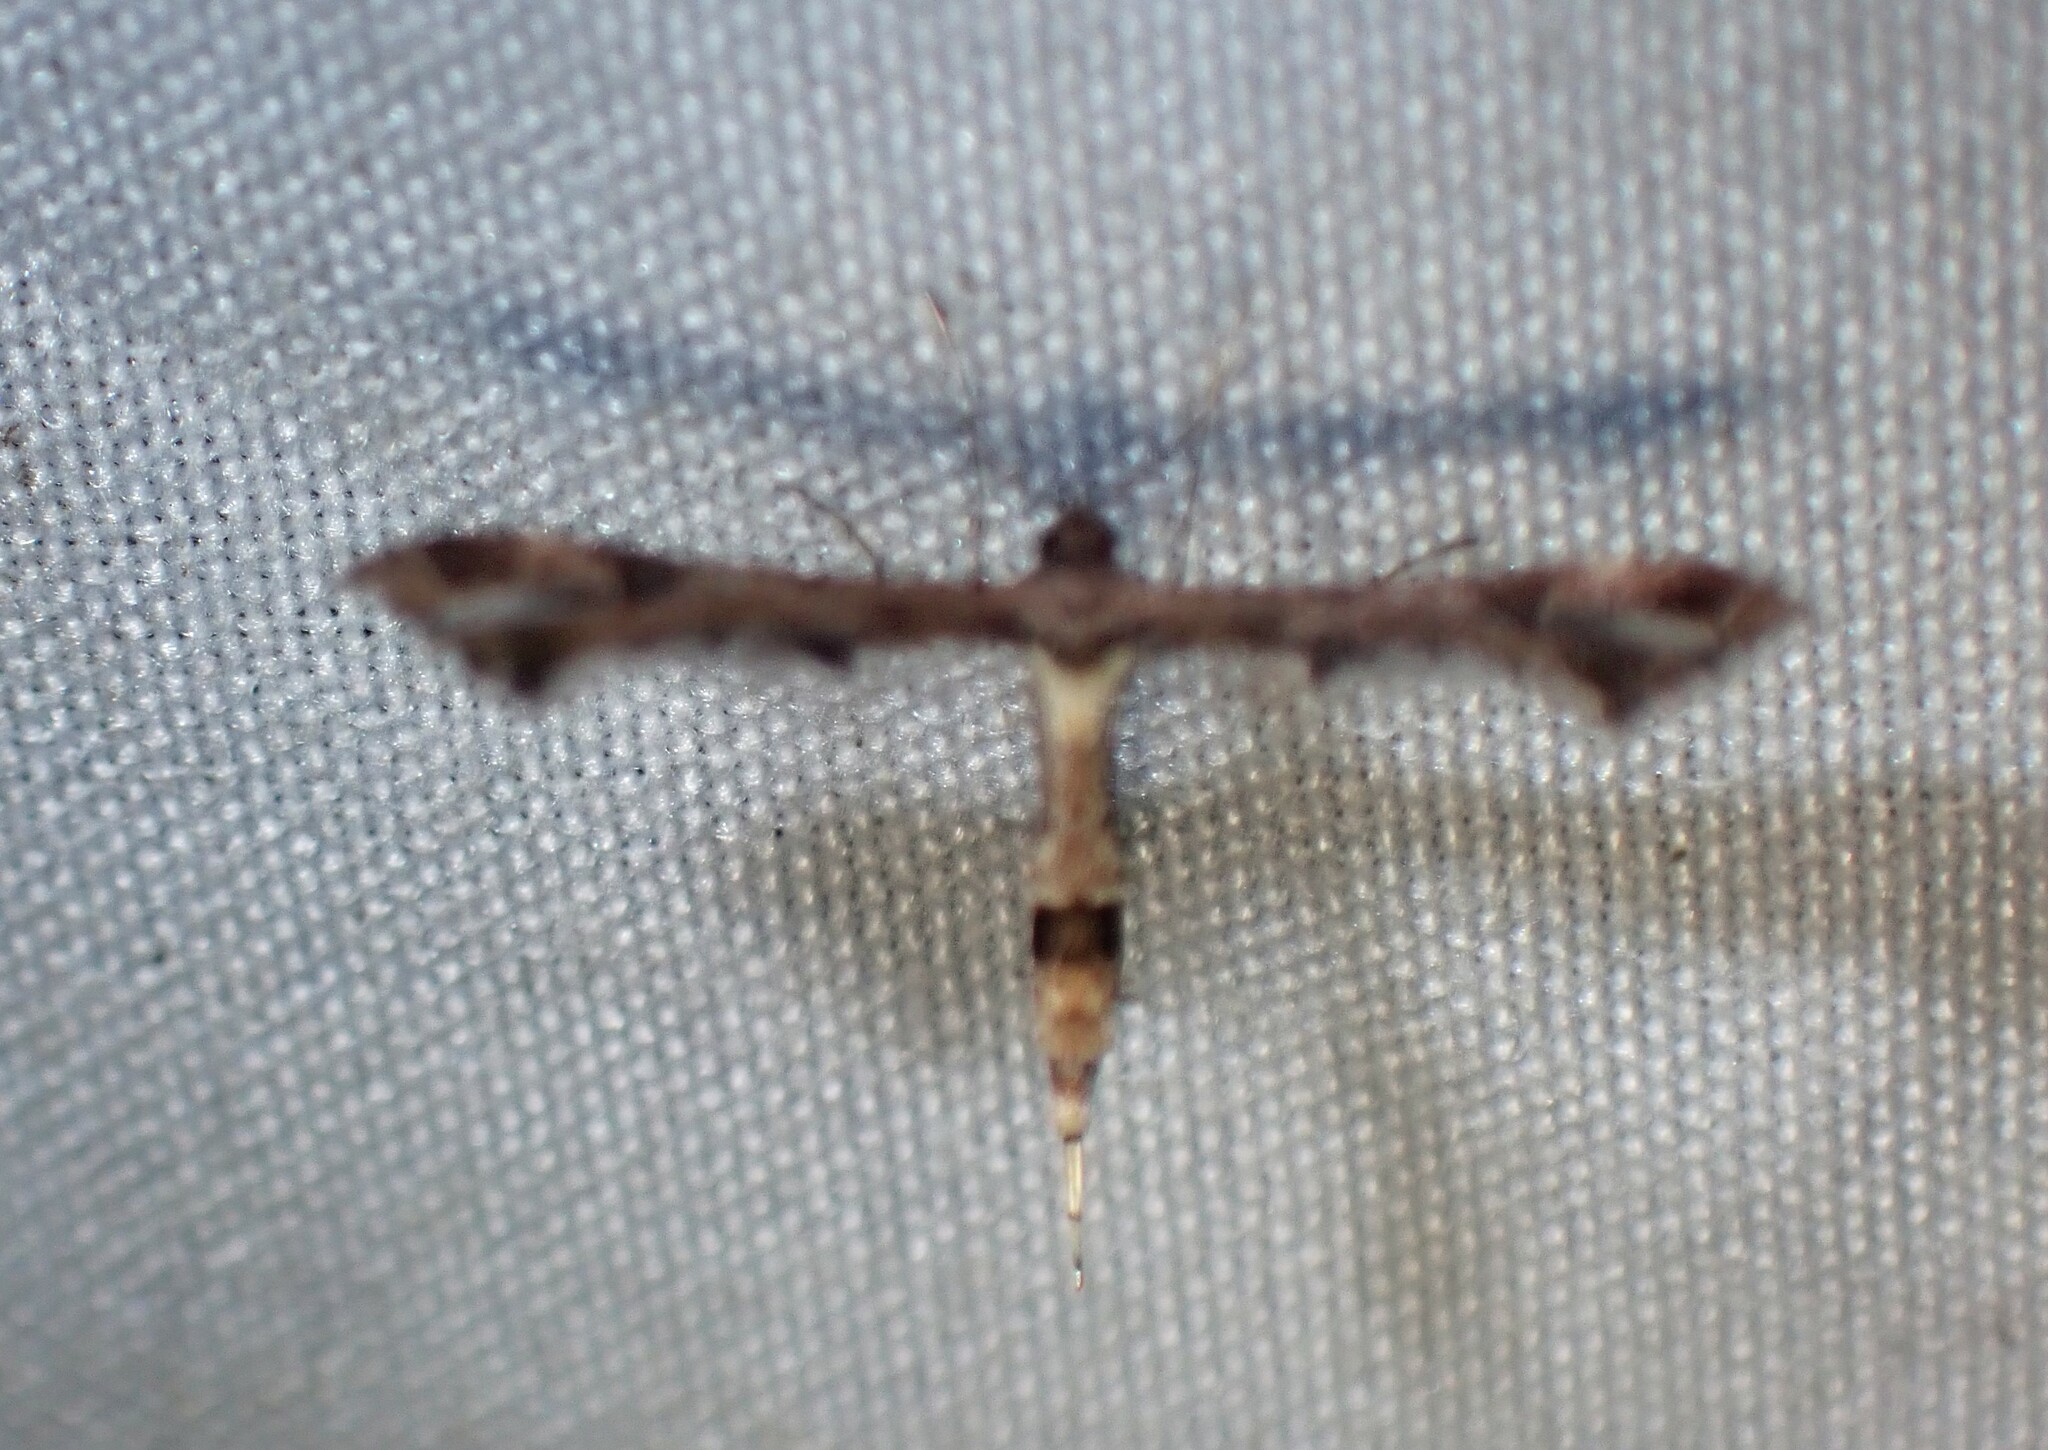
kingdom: Animalia
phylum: Arthropoda
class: Insecta
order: Lepidoptera
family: Pterophoridae
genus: Lantanophaga
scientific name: Lantanophaga pusillidactylus
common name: Moth
